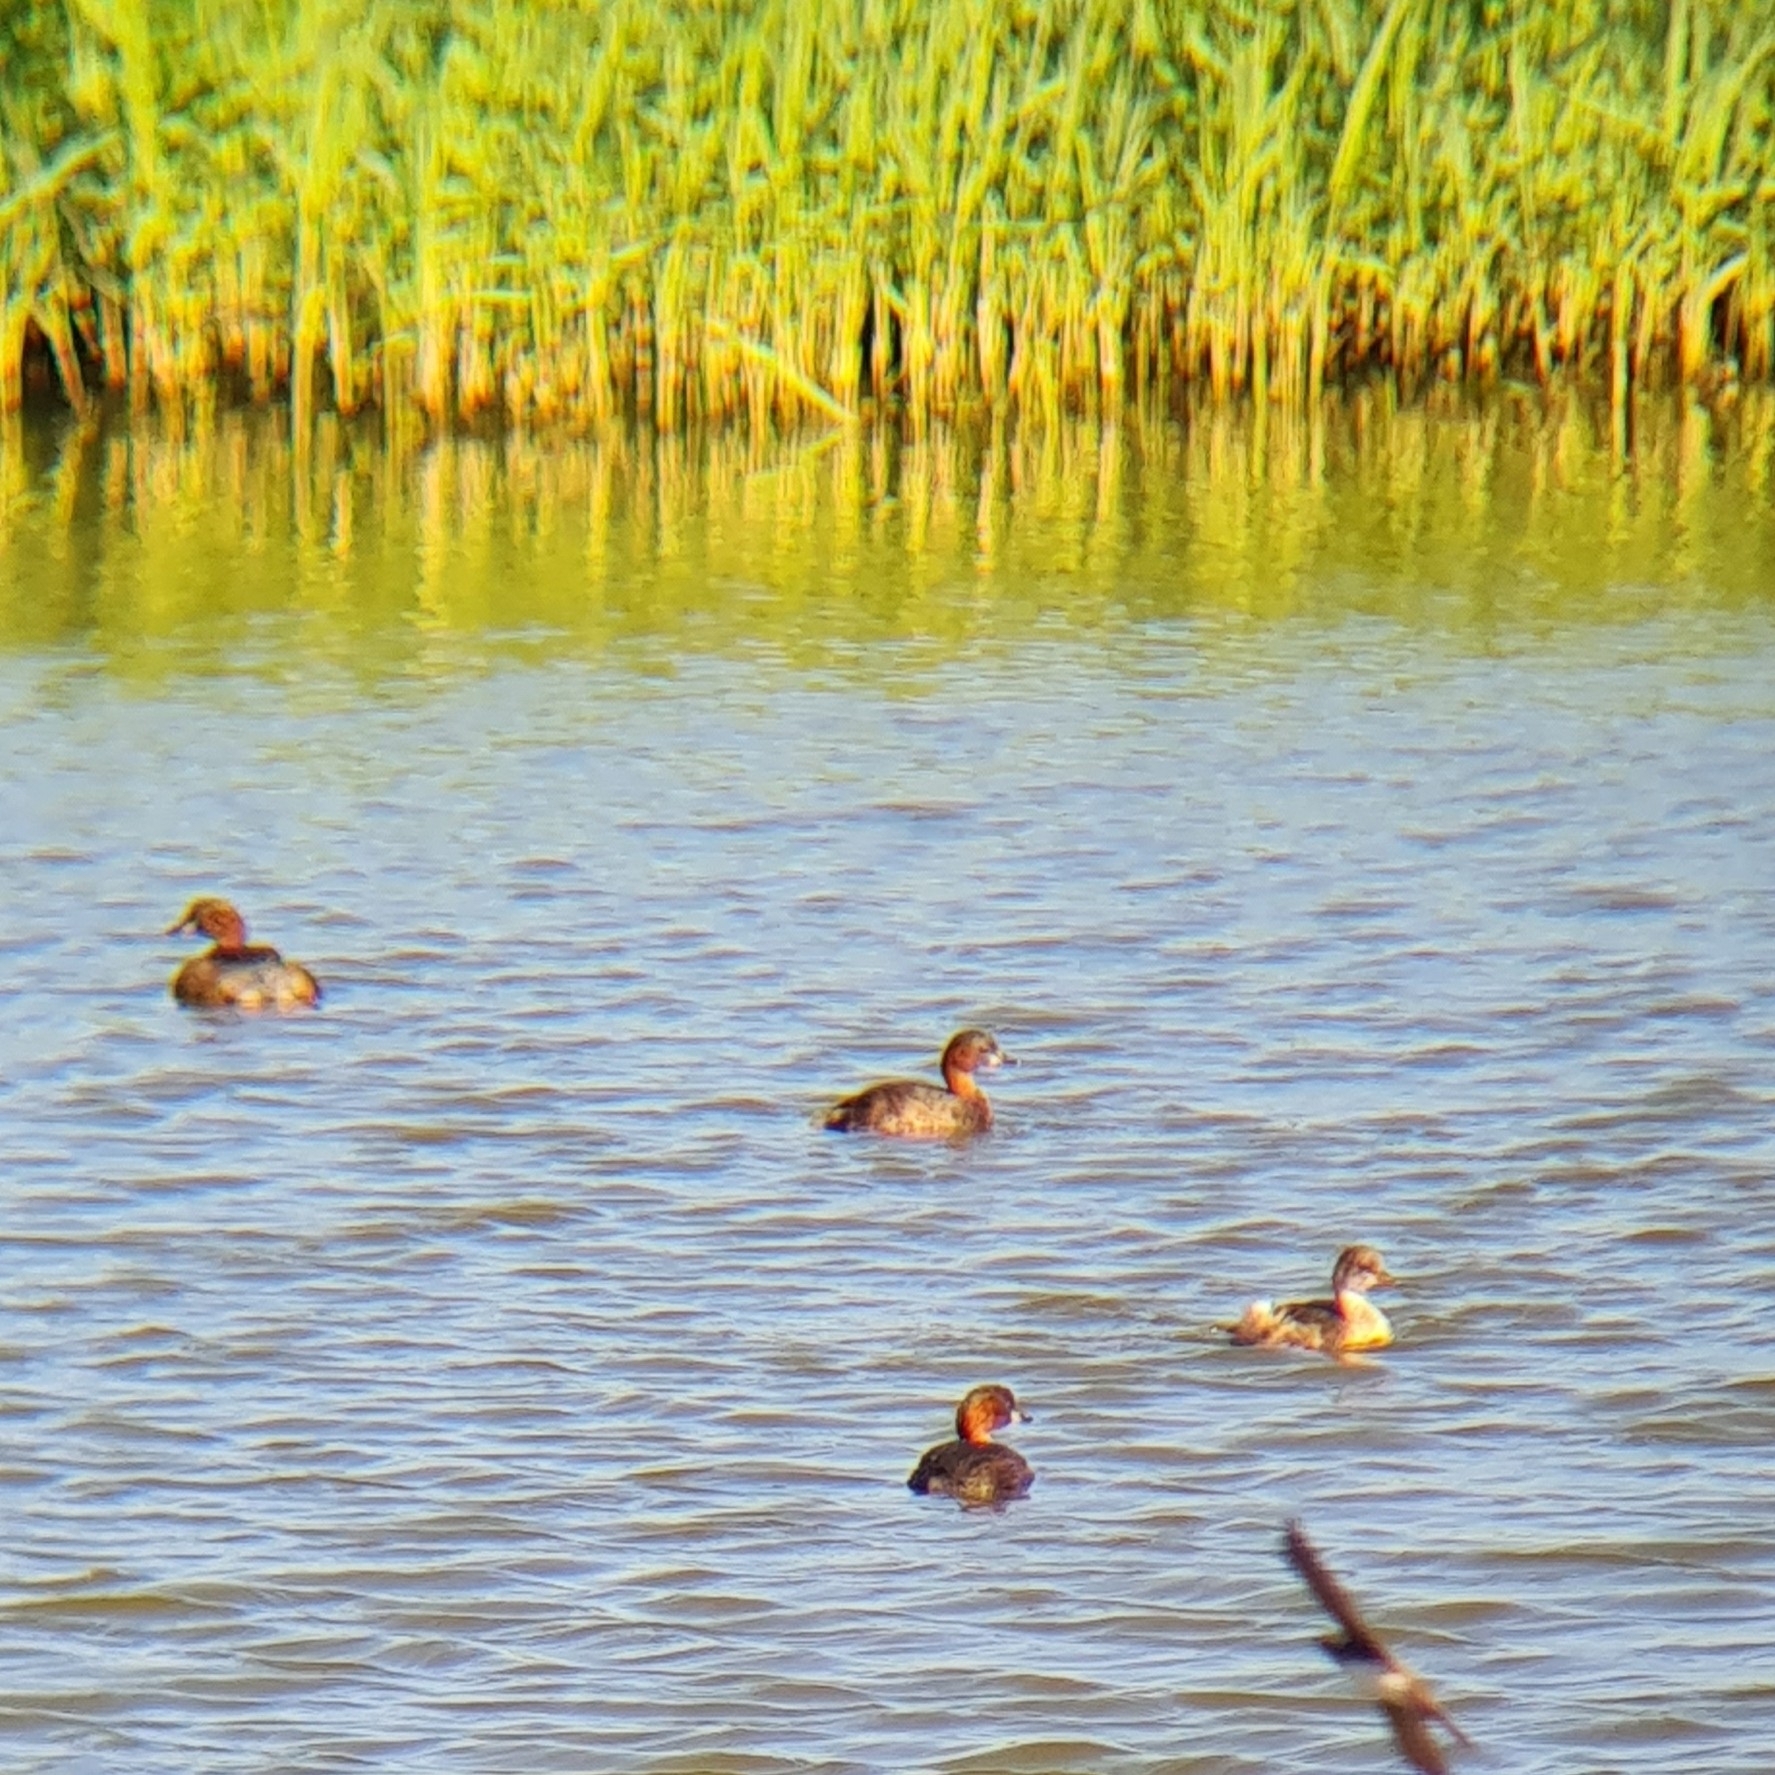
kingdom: Animalia
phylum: Chordata
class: Aves
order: Podicipediformes
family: Podicipedidae
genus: Tachybaptus
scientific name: Tachybaptus ruficollis
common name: Little grebe
